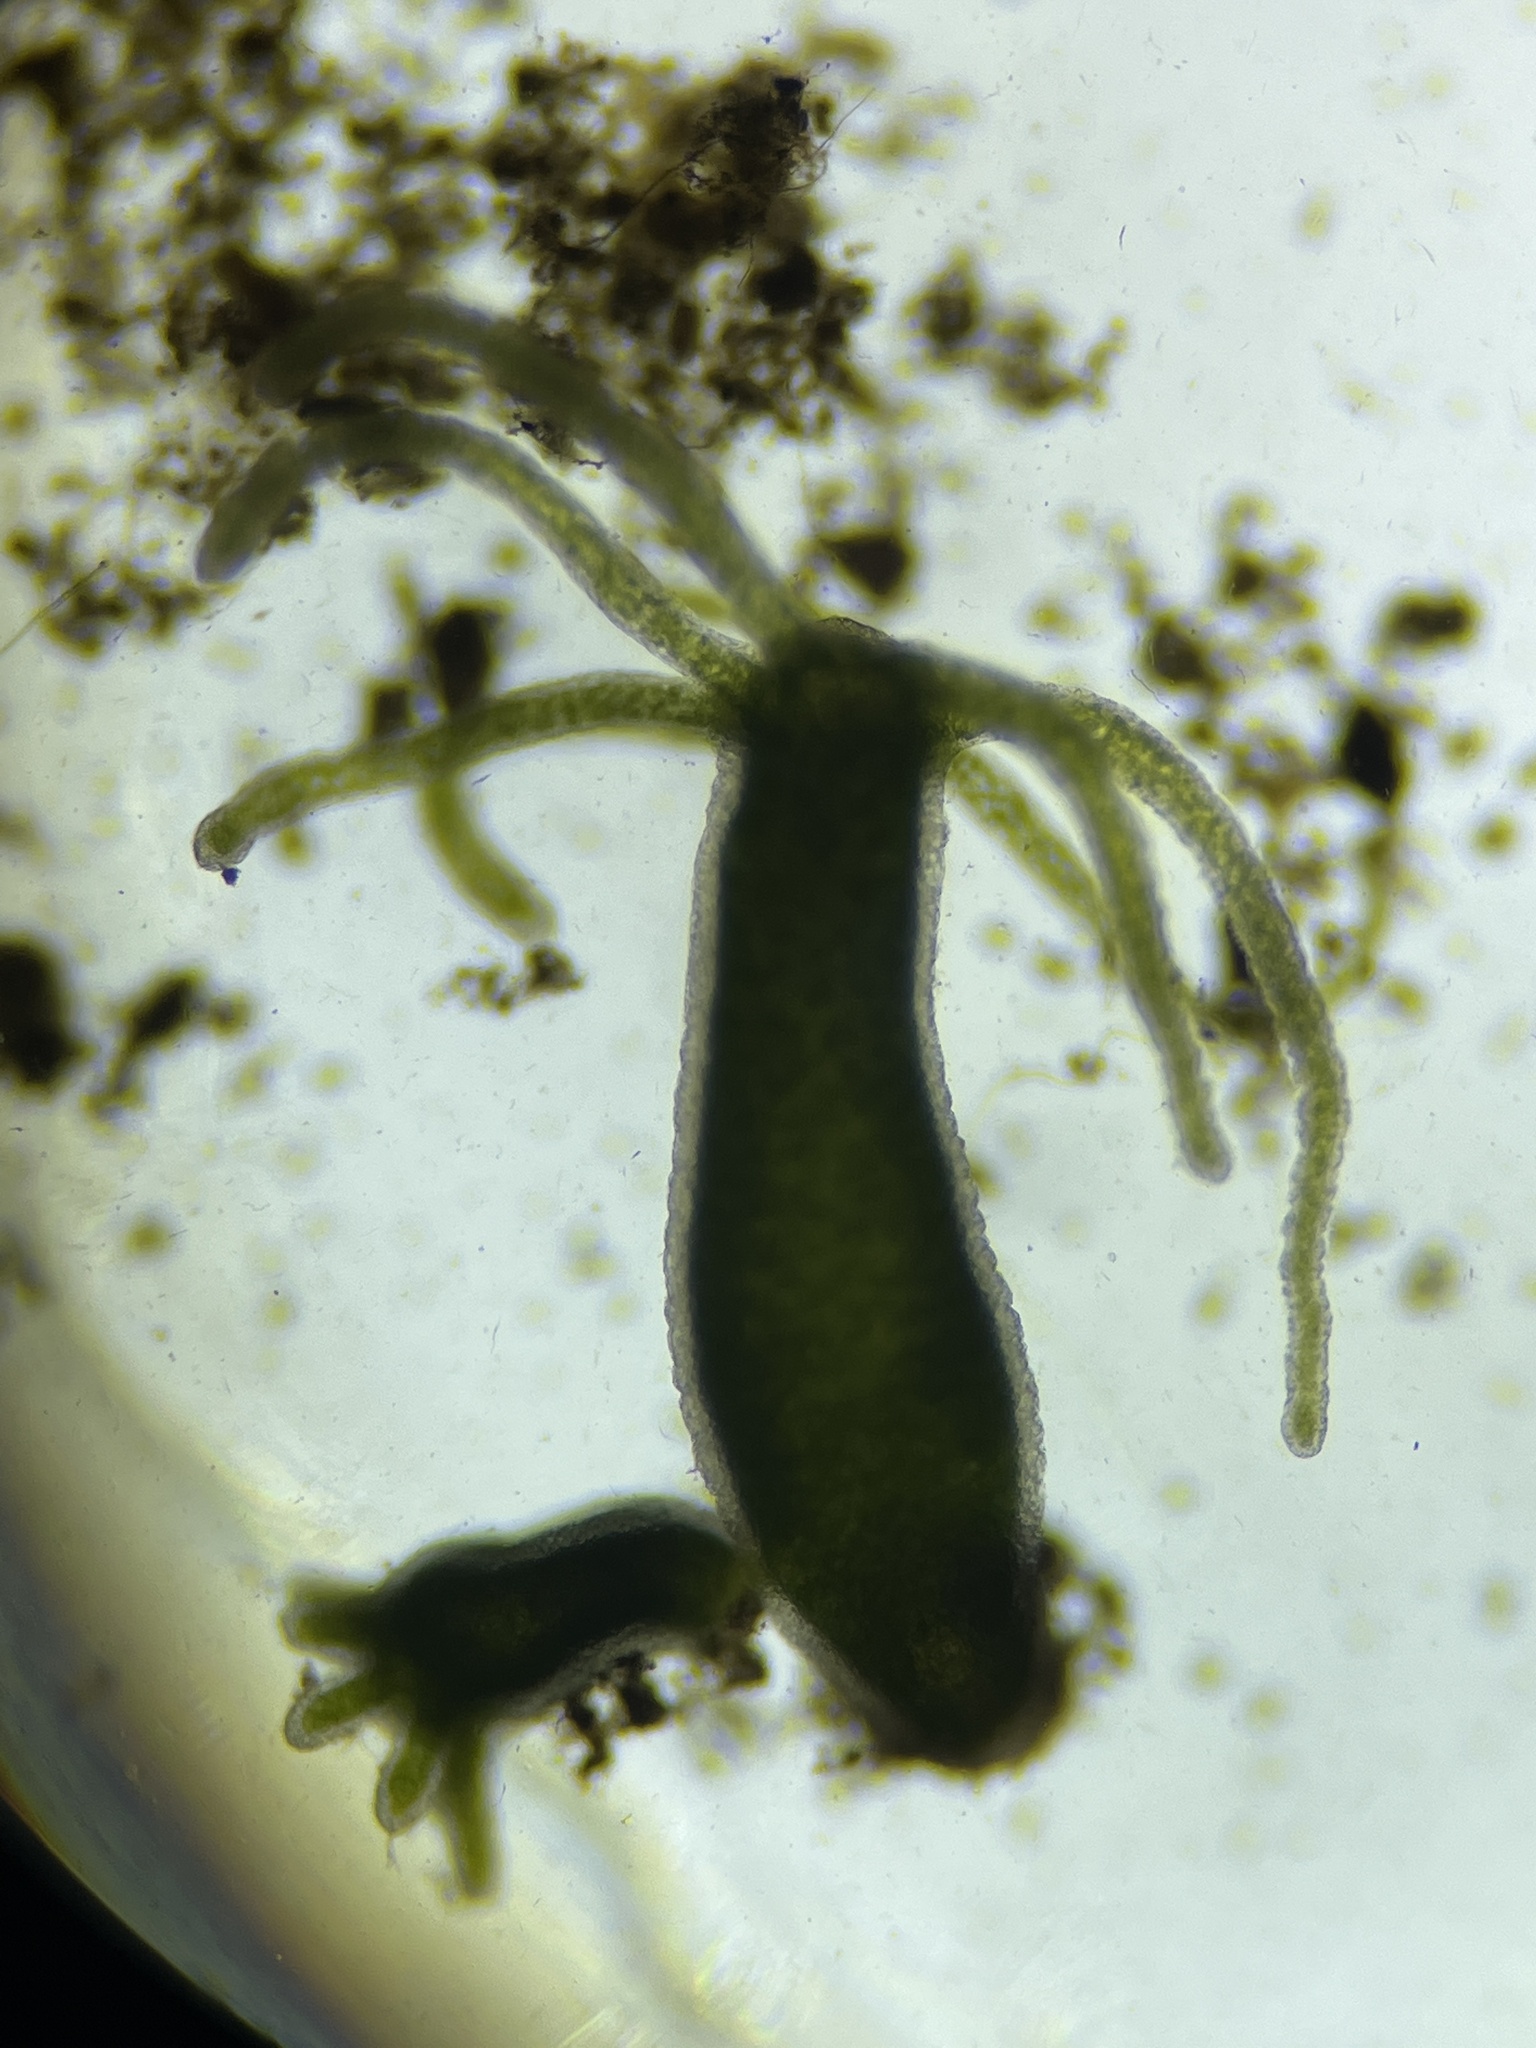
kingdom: Animalia
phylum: Cnidaria
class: Hydrozoa
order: Anthoathecata
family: Hydridae
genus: Hydra
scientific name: Hydra viridissima
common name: Green hydra
